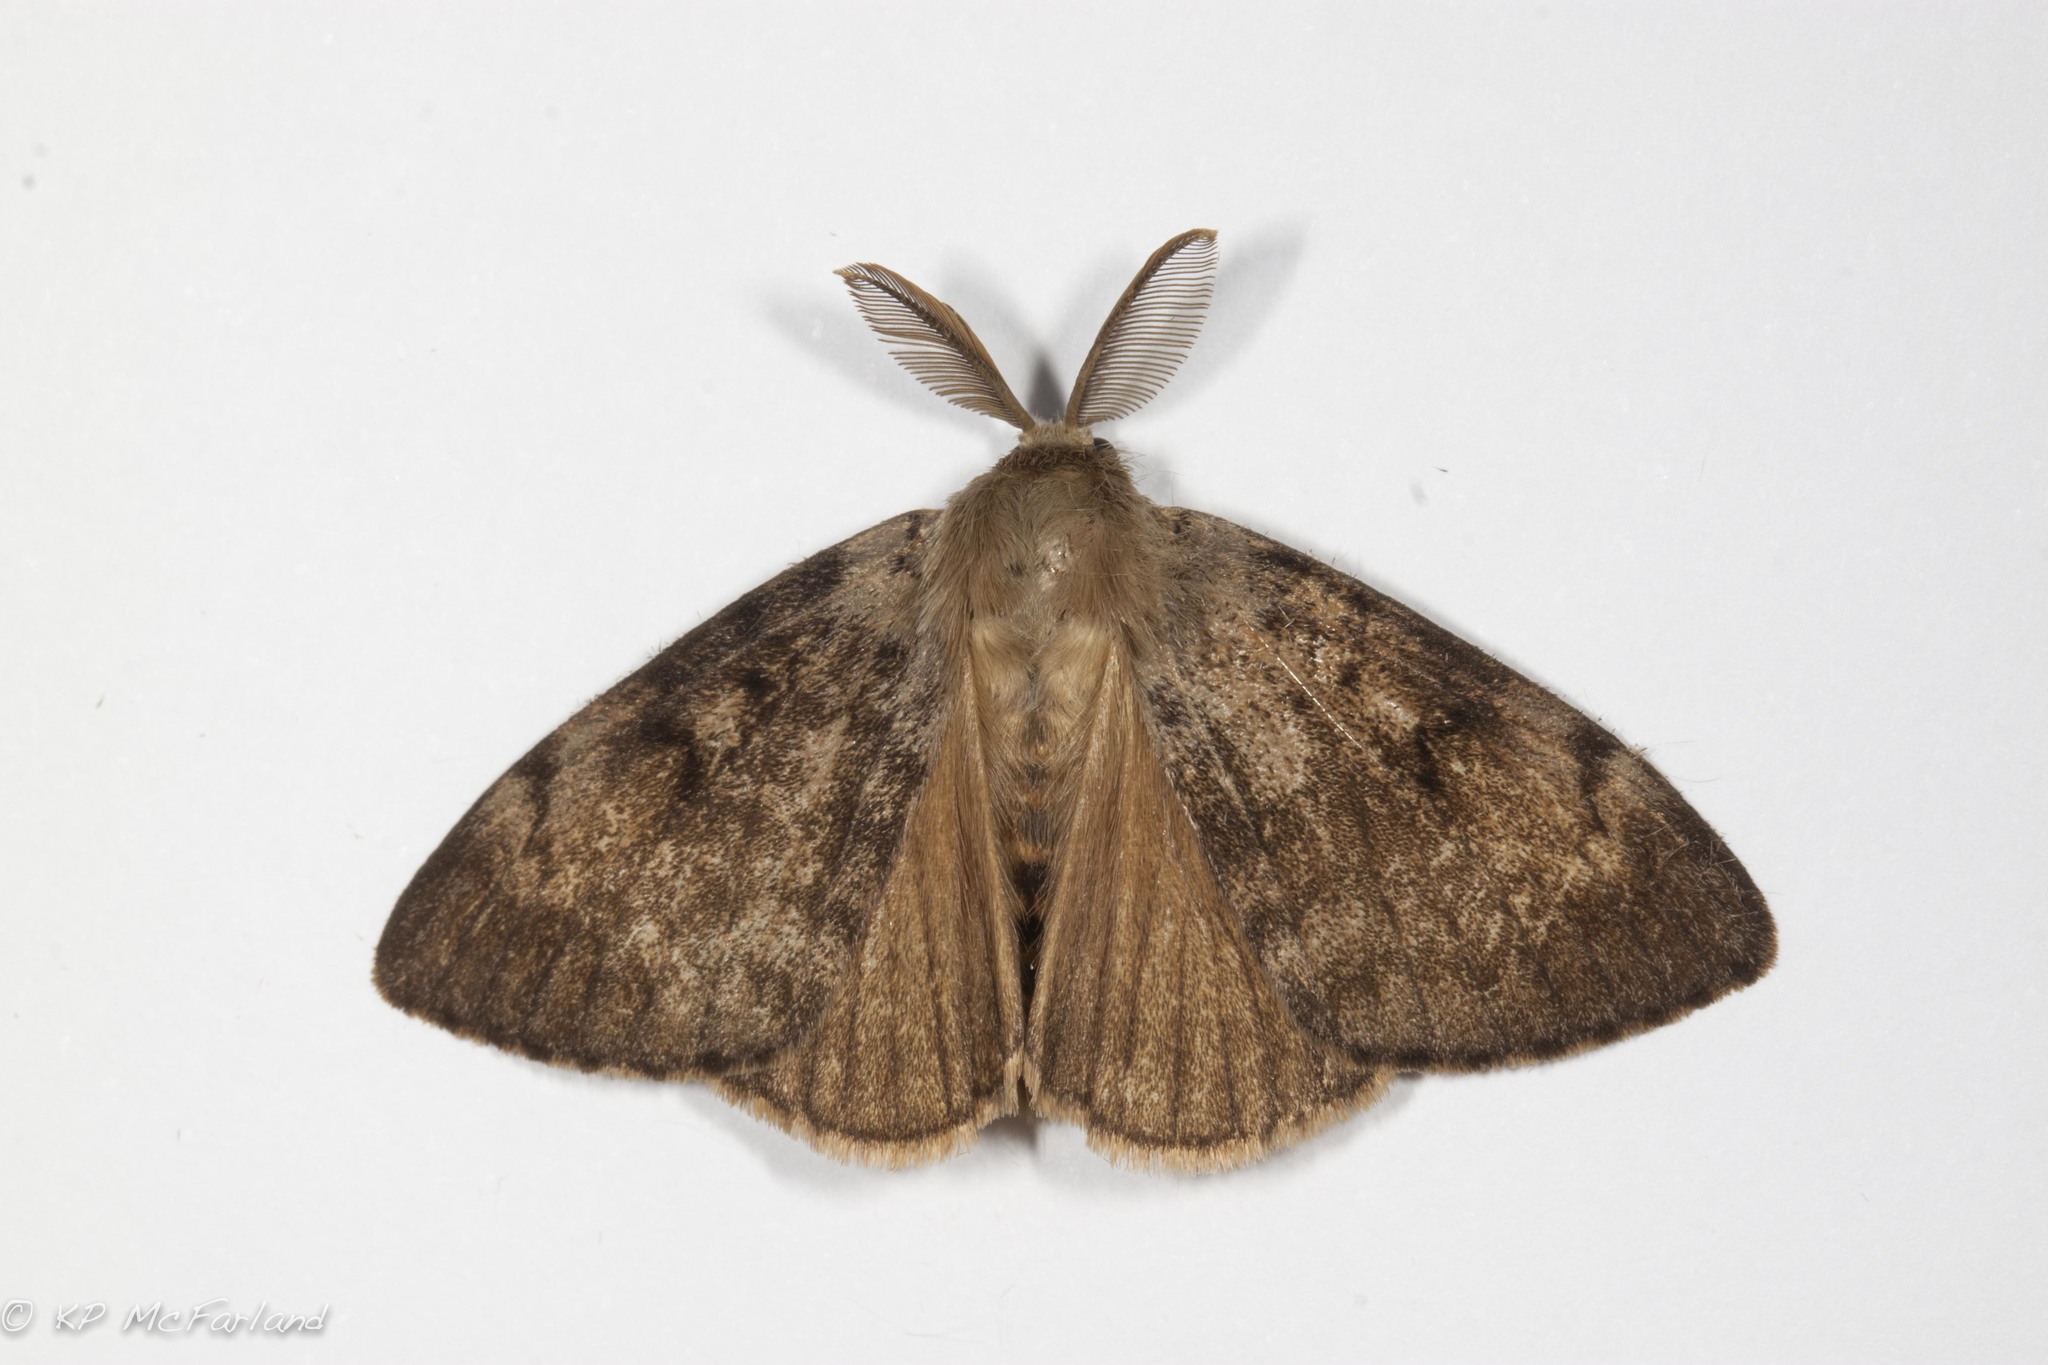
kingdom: Animalia
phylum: Arthropoda
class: Insecta
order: Lepidoptera
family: Erebidae
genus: Lymantria
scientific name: Lymantria dispar
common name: Gypsy moth
